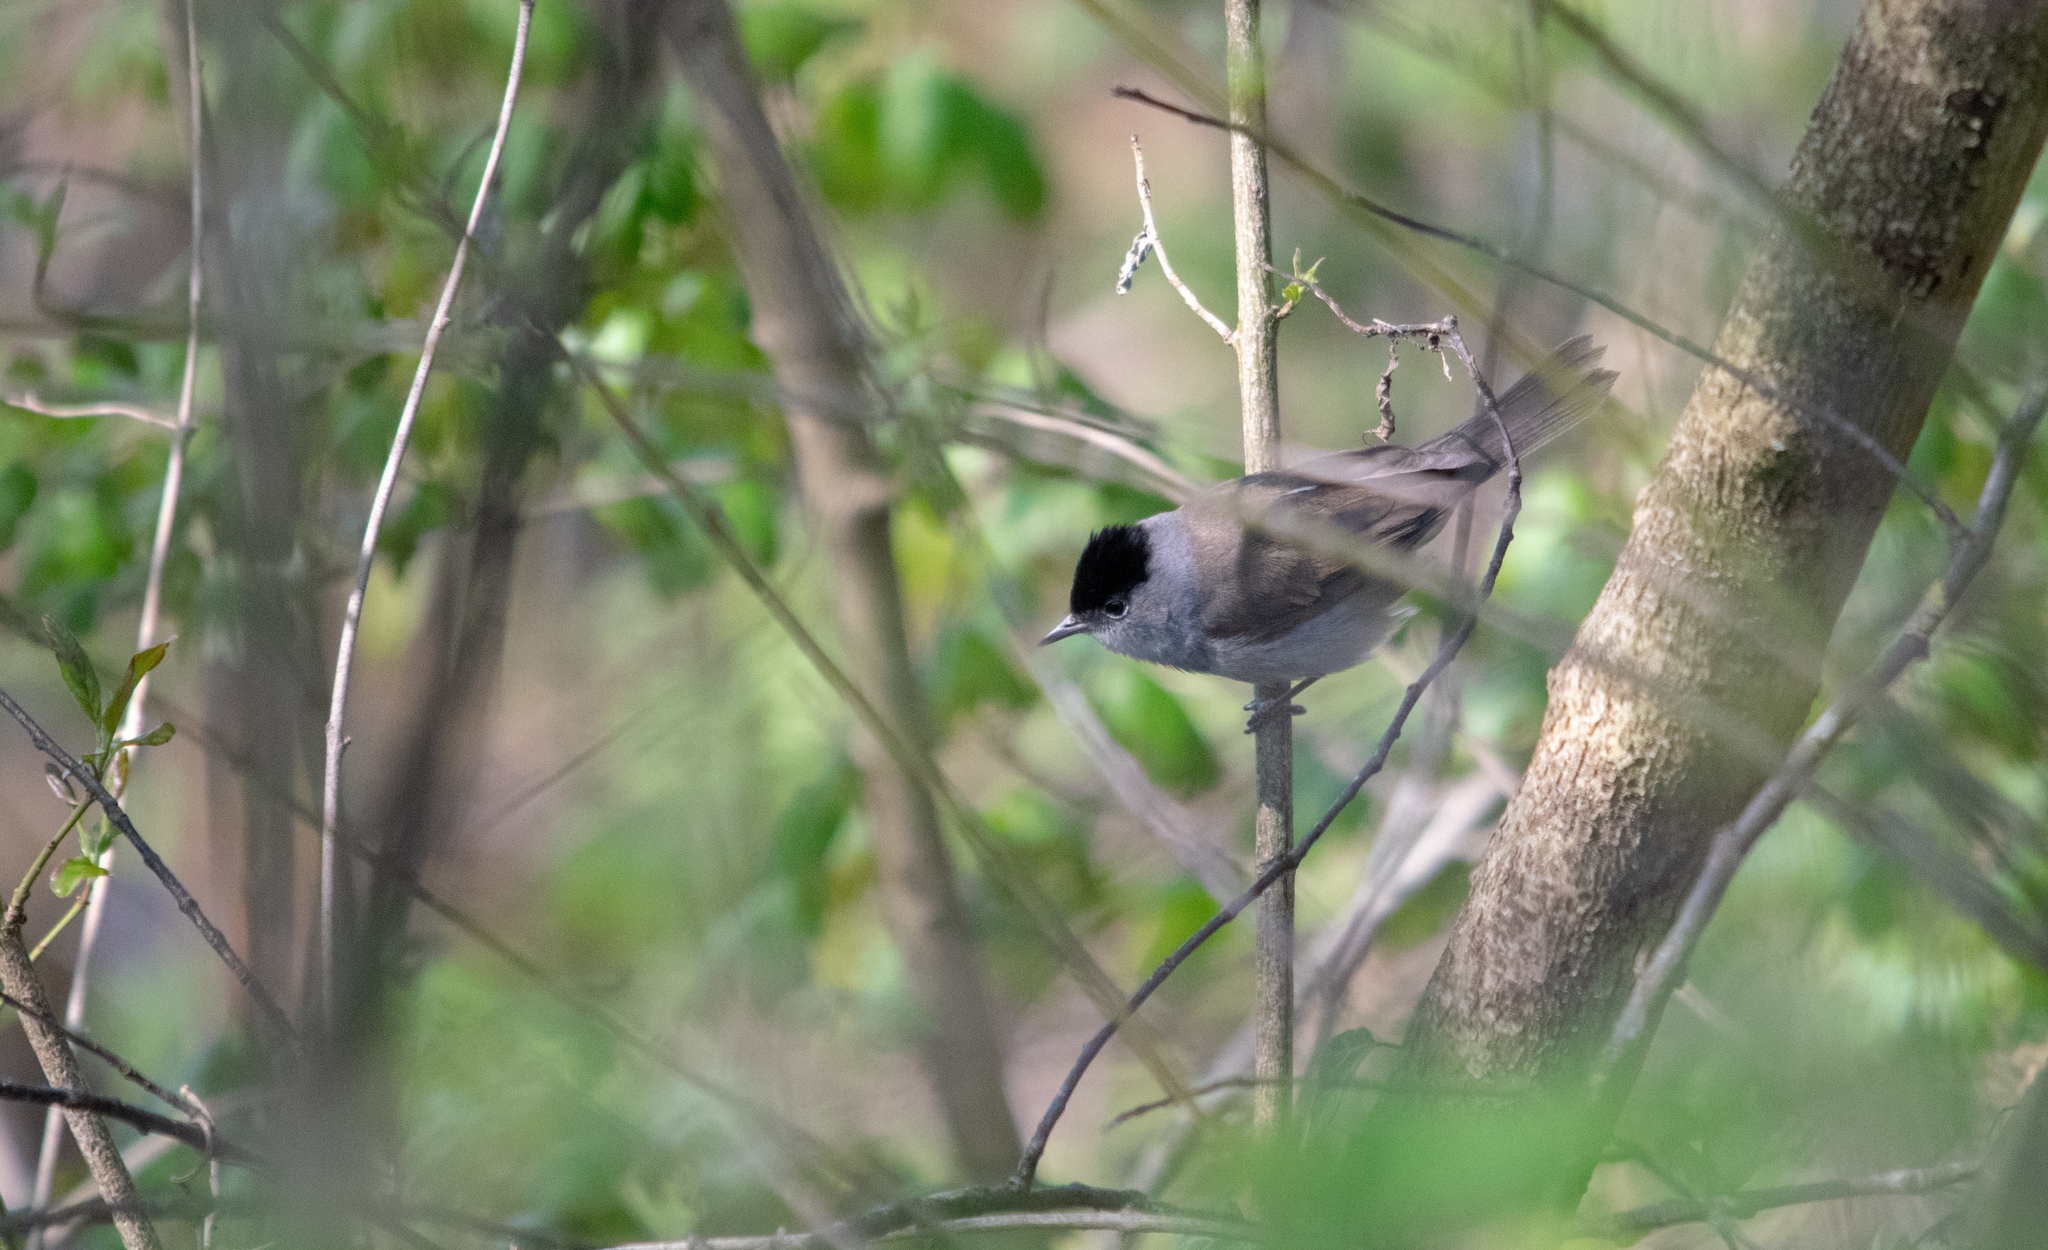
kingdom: Animalia
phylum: Chordata
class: Aves
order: Passeriformes
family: Sylviidae
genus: Sylvia
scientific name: Sylvia atricapilla
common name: Eurasian blackcap
